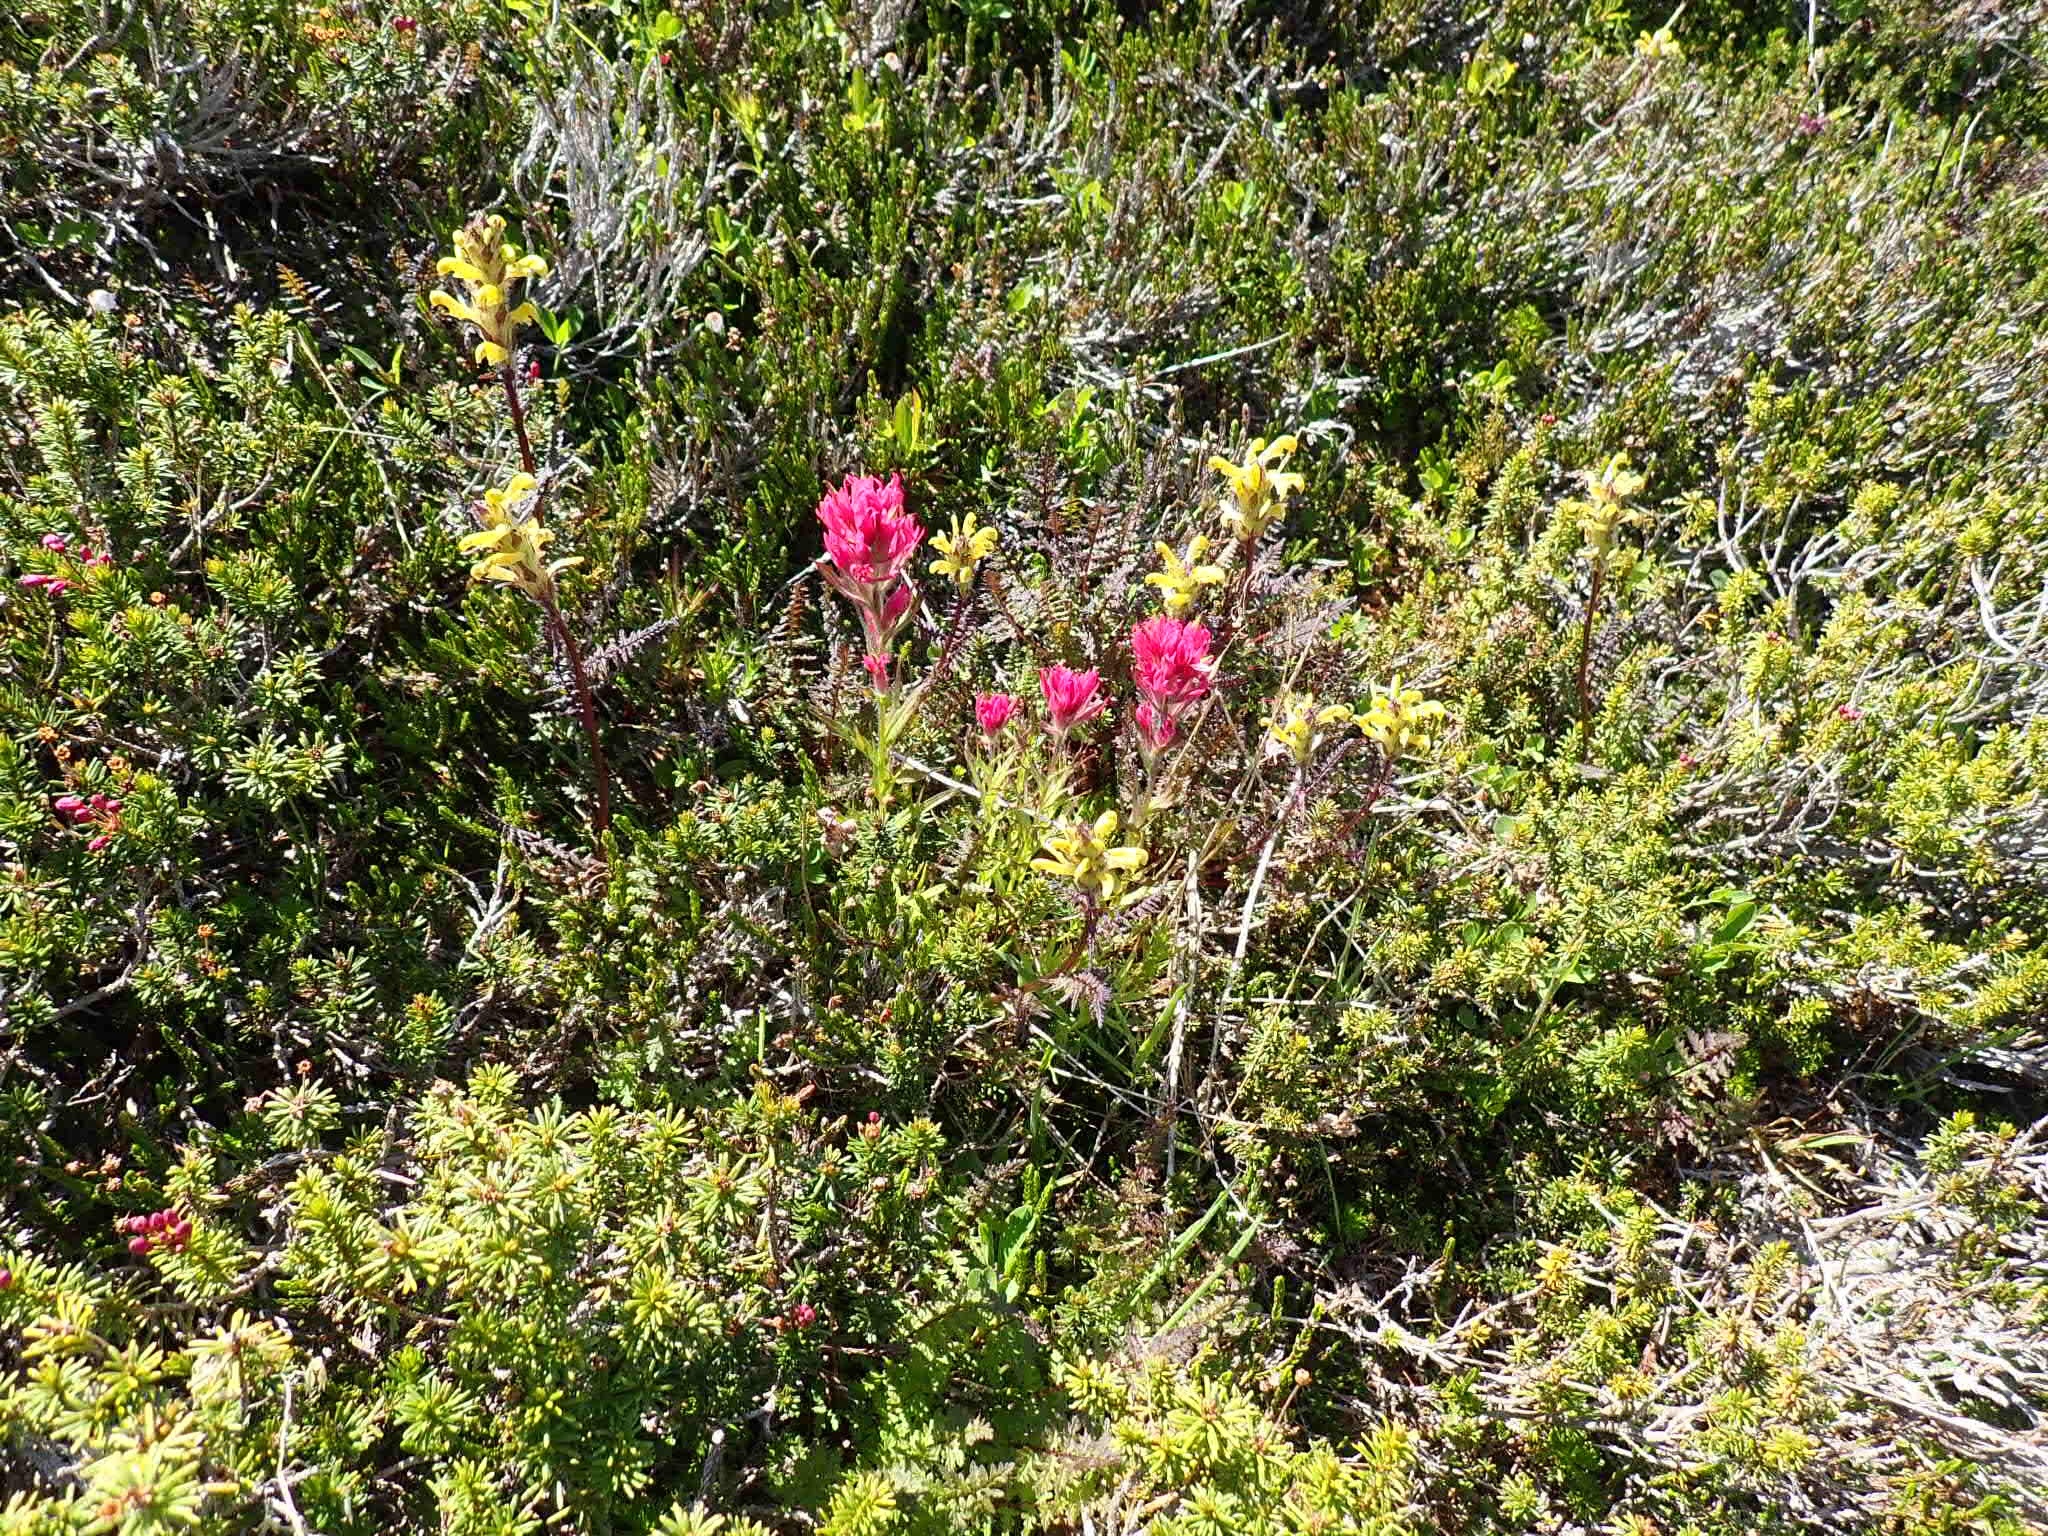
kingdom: Plantae
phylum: Tracheophyta
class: Magnoliopsida
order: Lamiales
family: Orobanchaceae
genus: Pedicularis
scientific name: Pedicularis rainierensis
